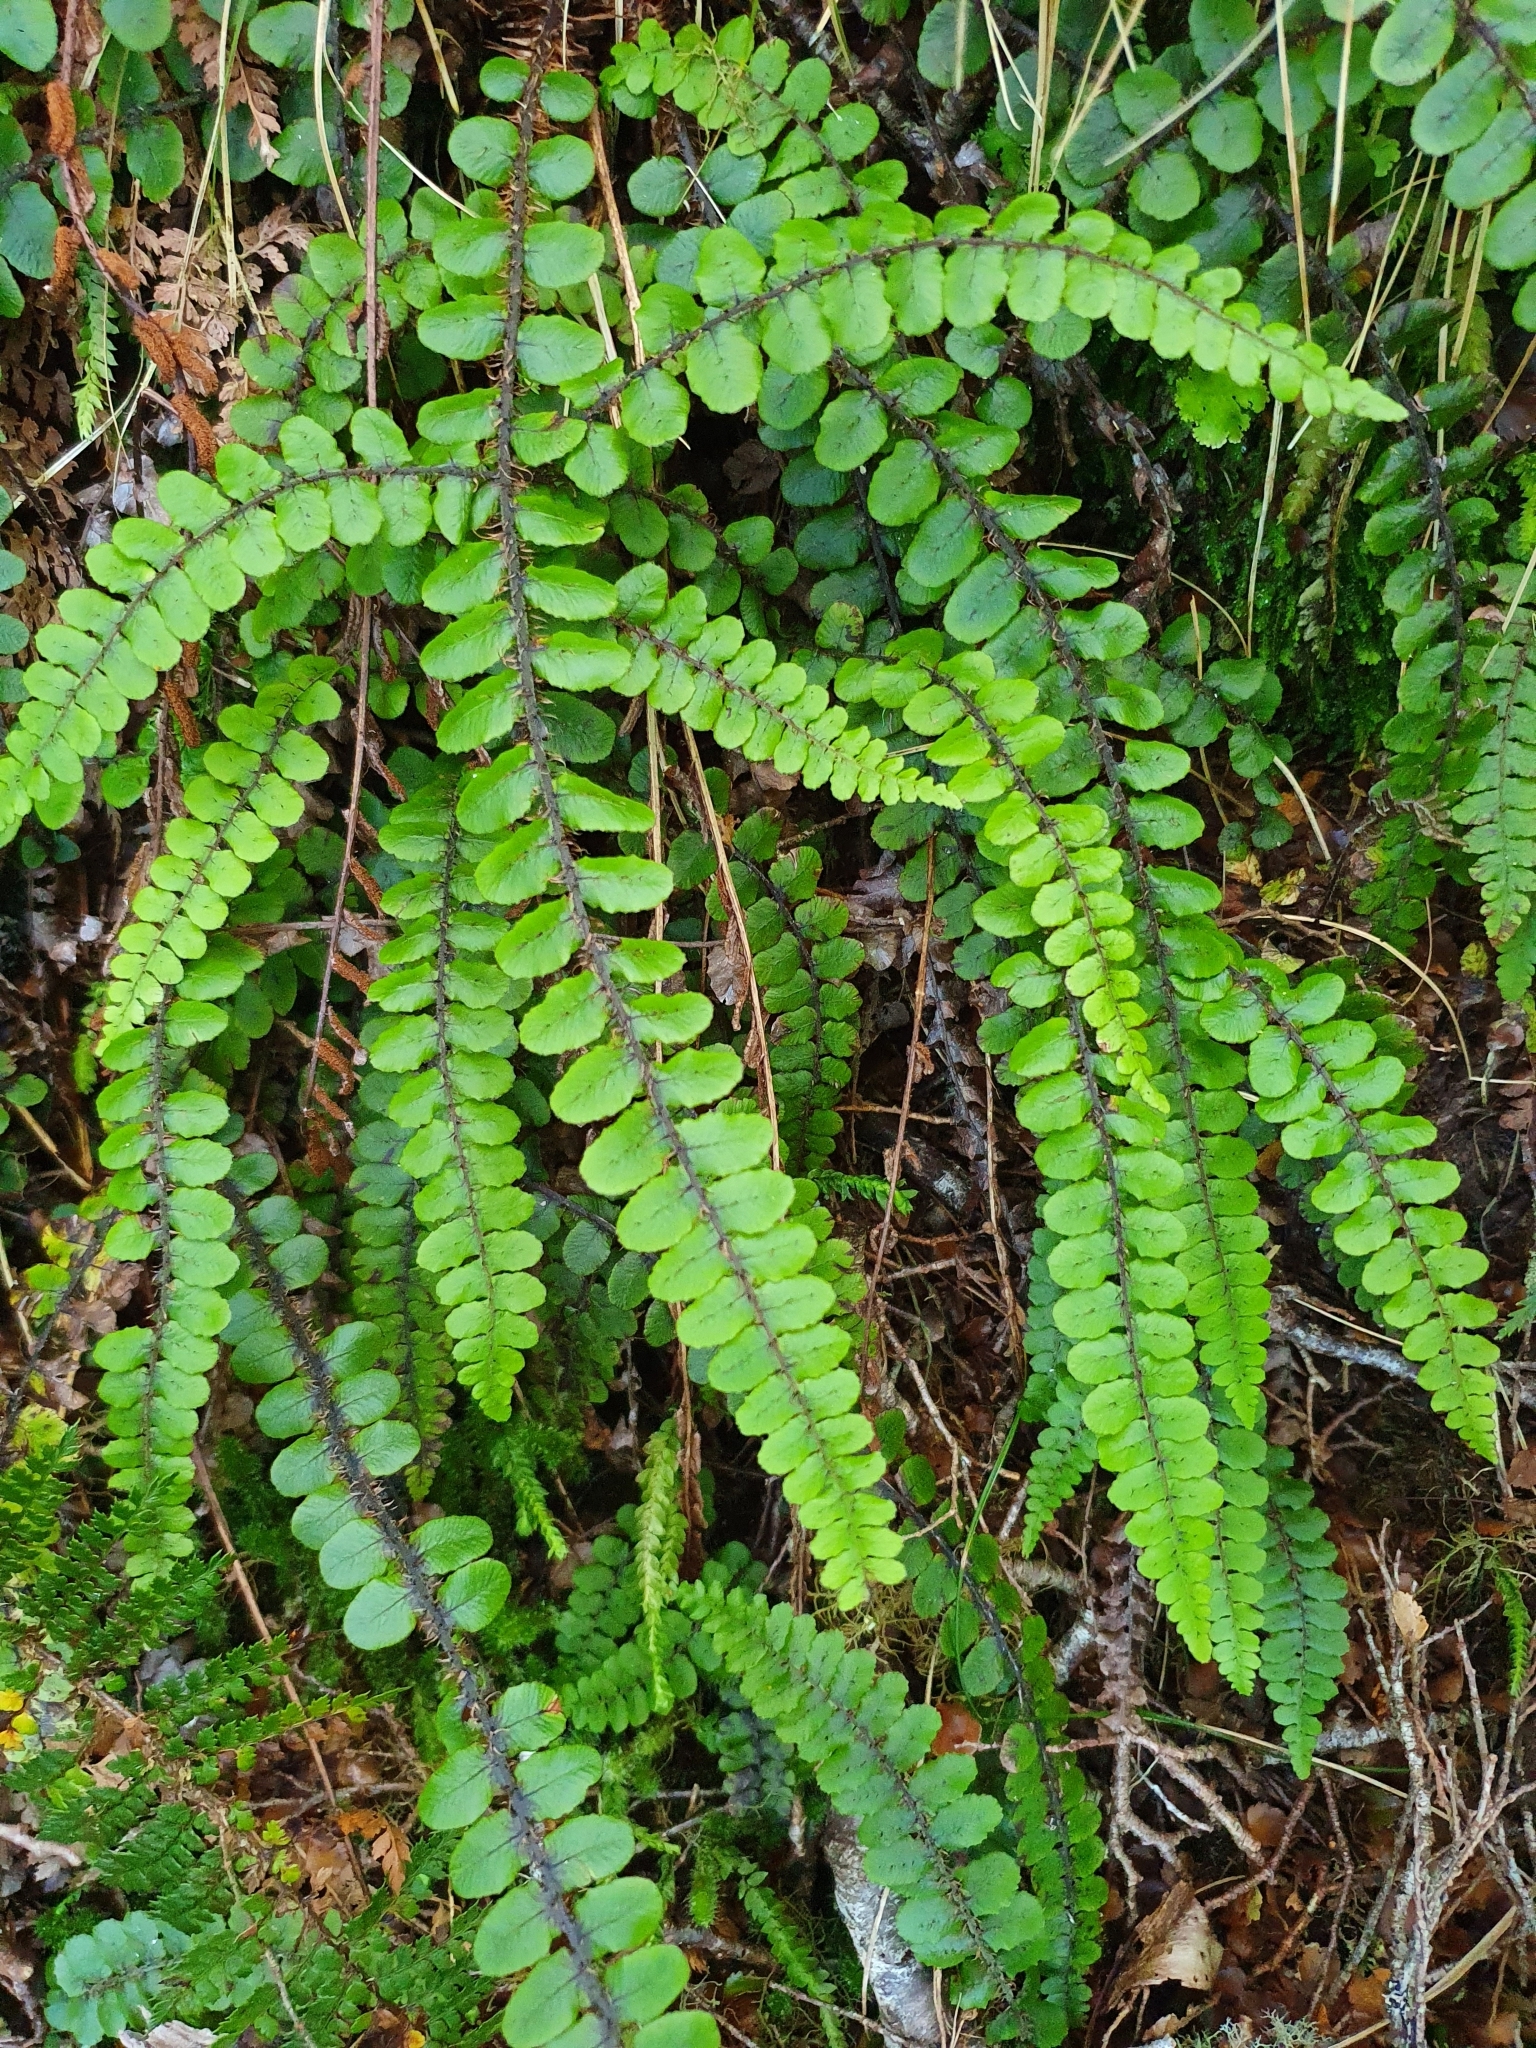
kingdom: Plantae
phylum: Tracheophyta
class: Polypodiopsida
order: Polypodiales
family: Blechnaceae
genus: Cranfillia
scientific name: Cranfillia fluviatilis
